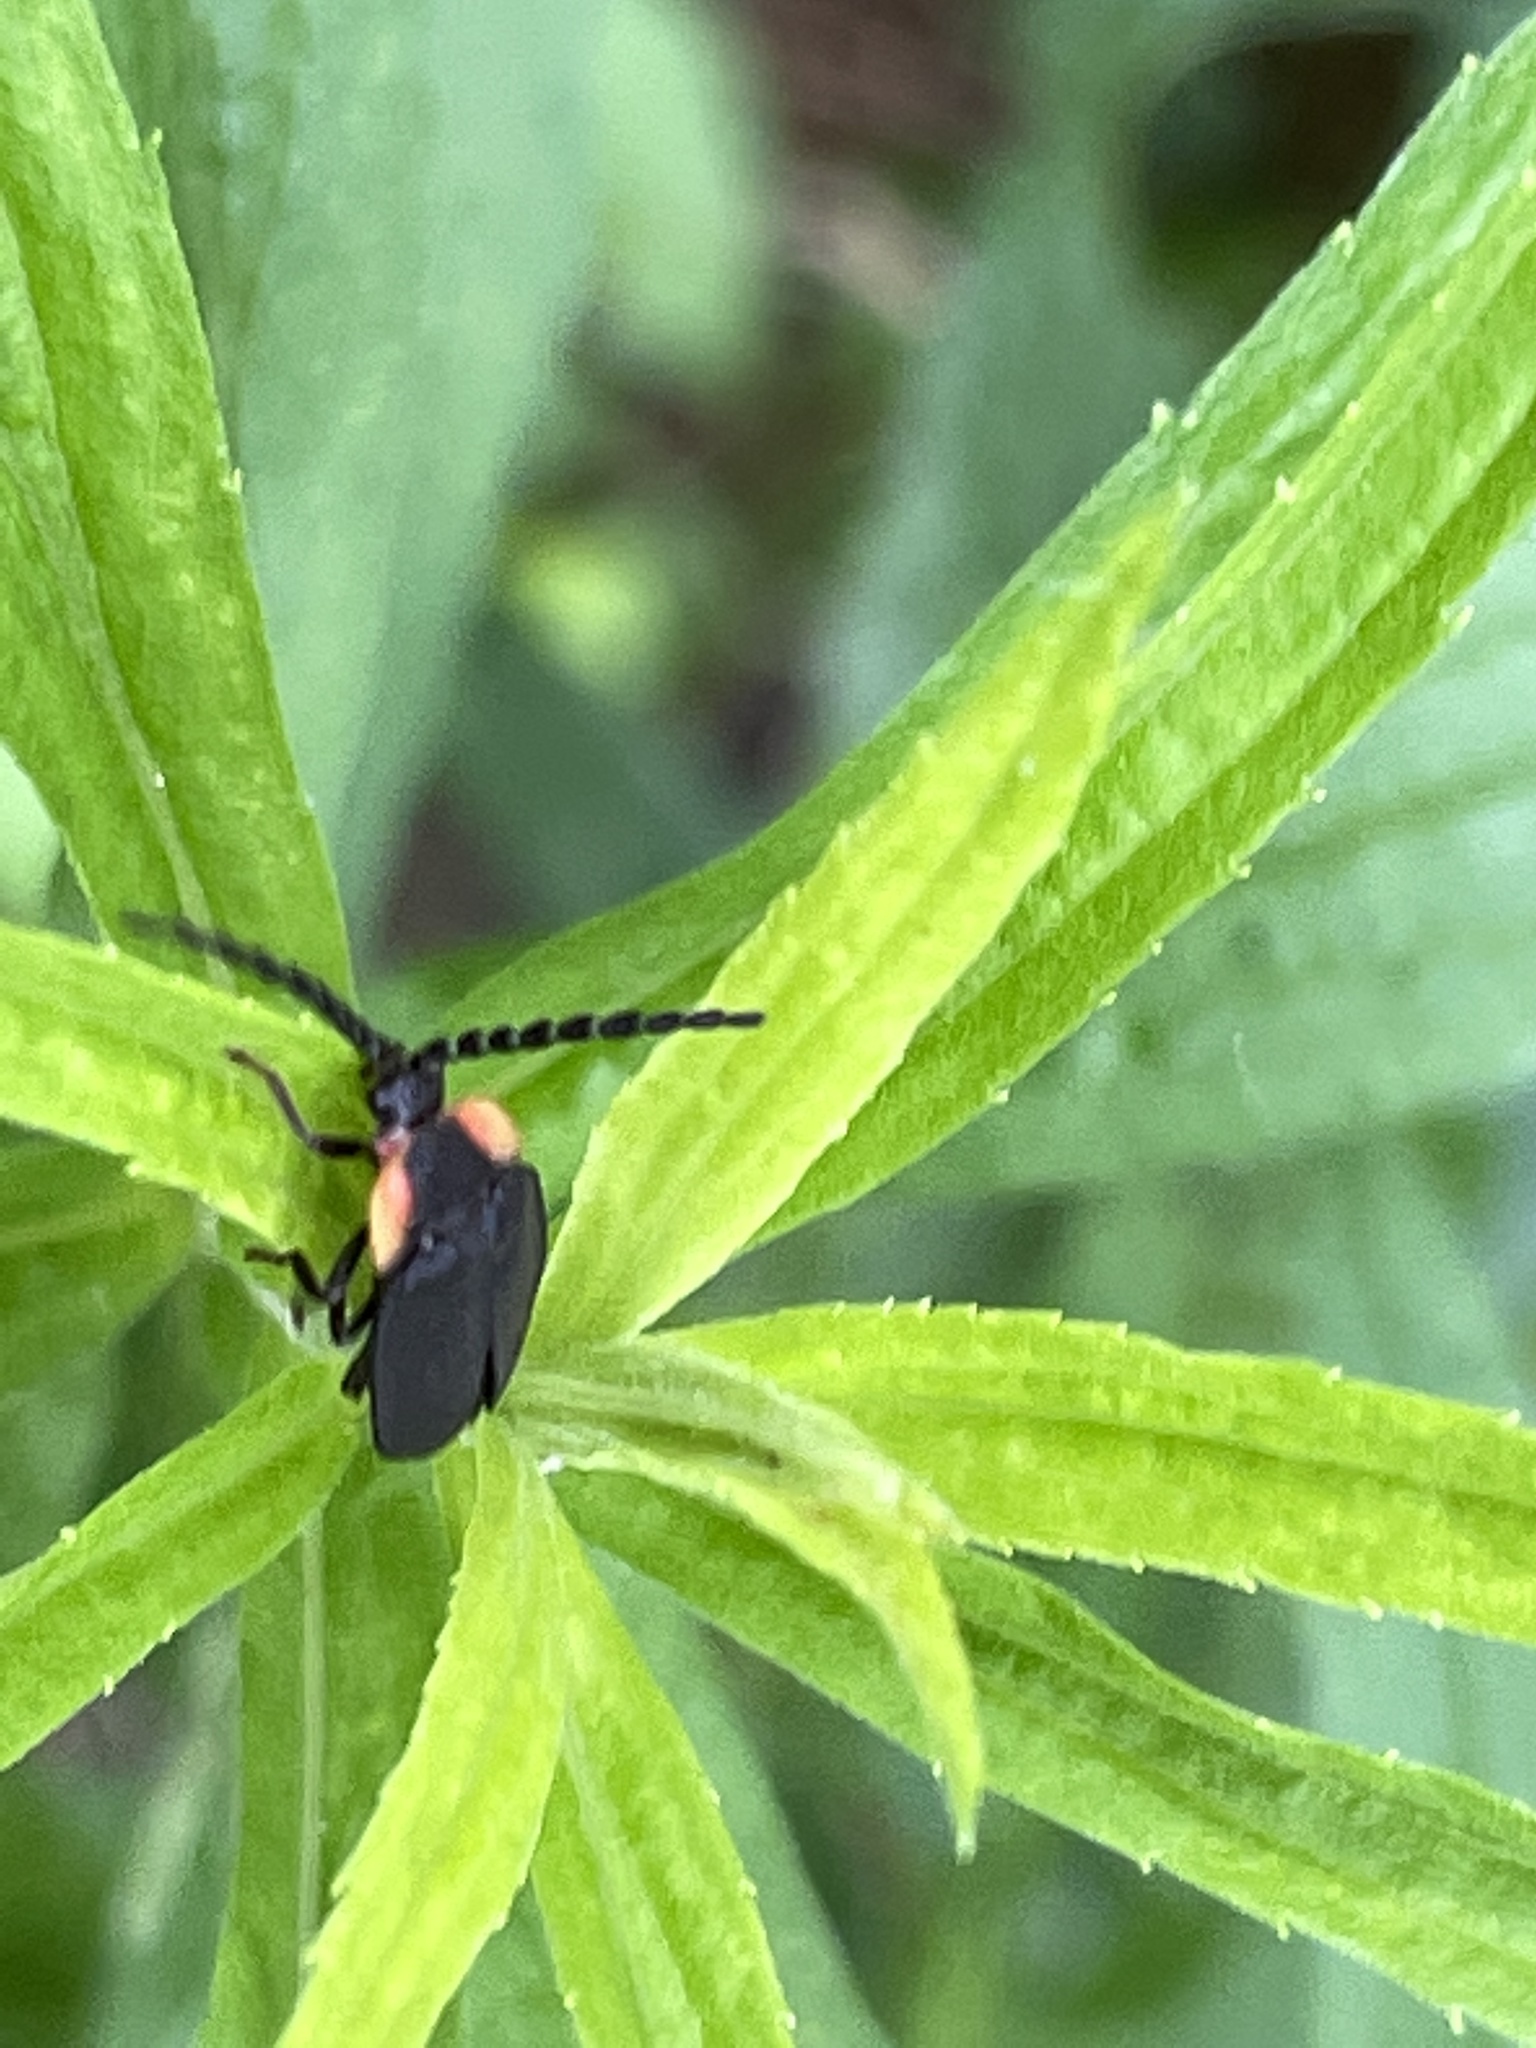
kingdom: Animalia
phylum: Arthropoda
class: Insecta
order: Coleoptera
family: Lampyridae
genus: Lucidota
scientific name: Lucidota atra
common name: Black firefly
